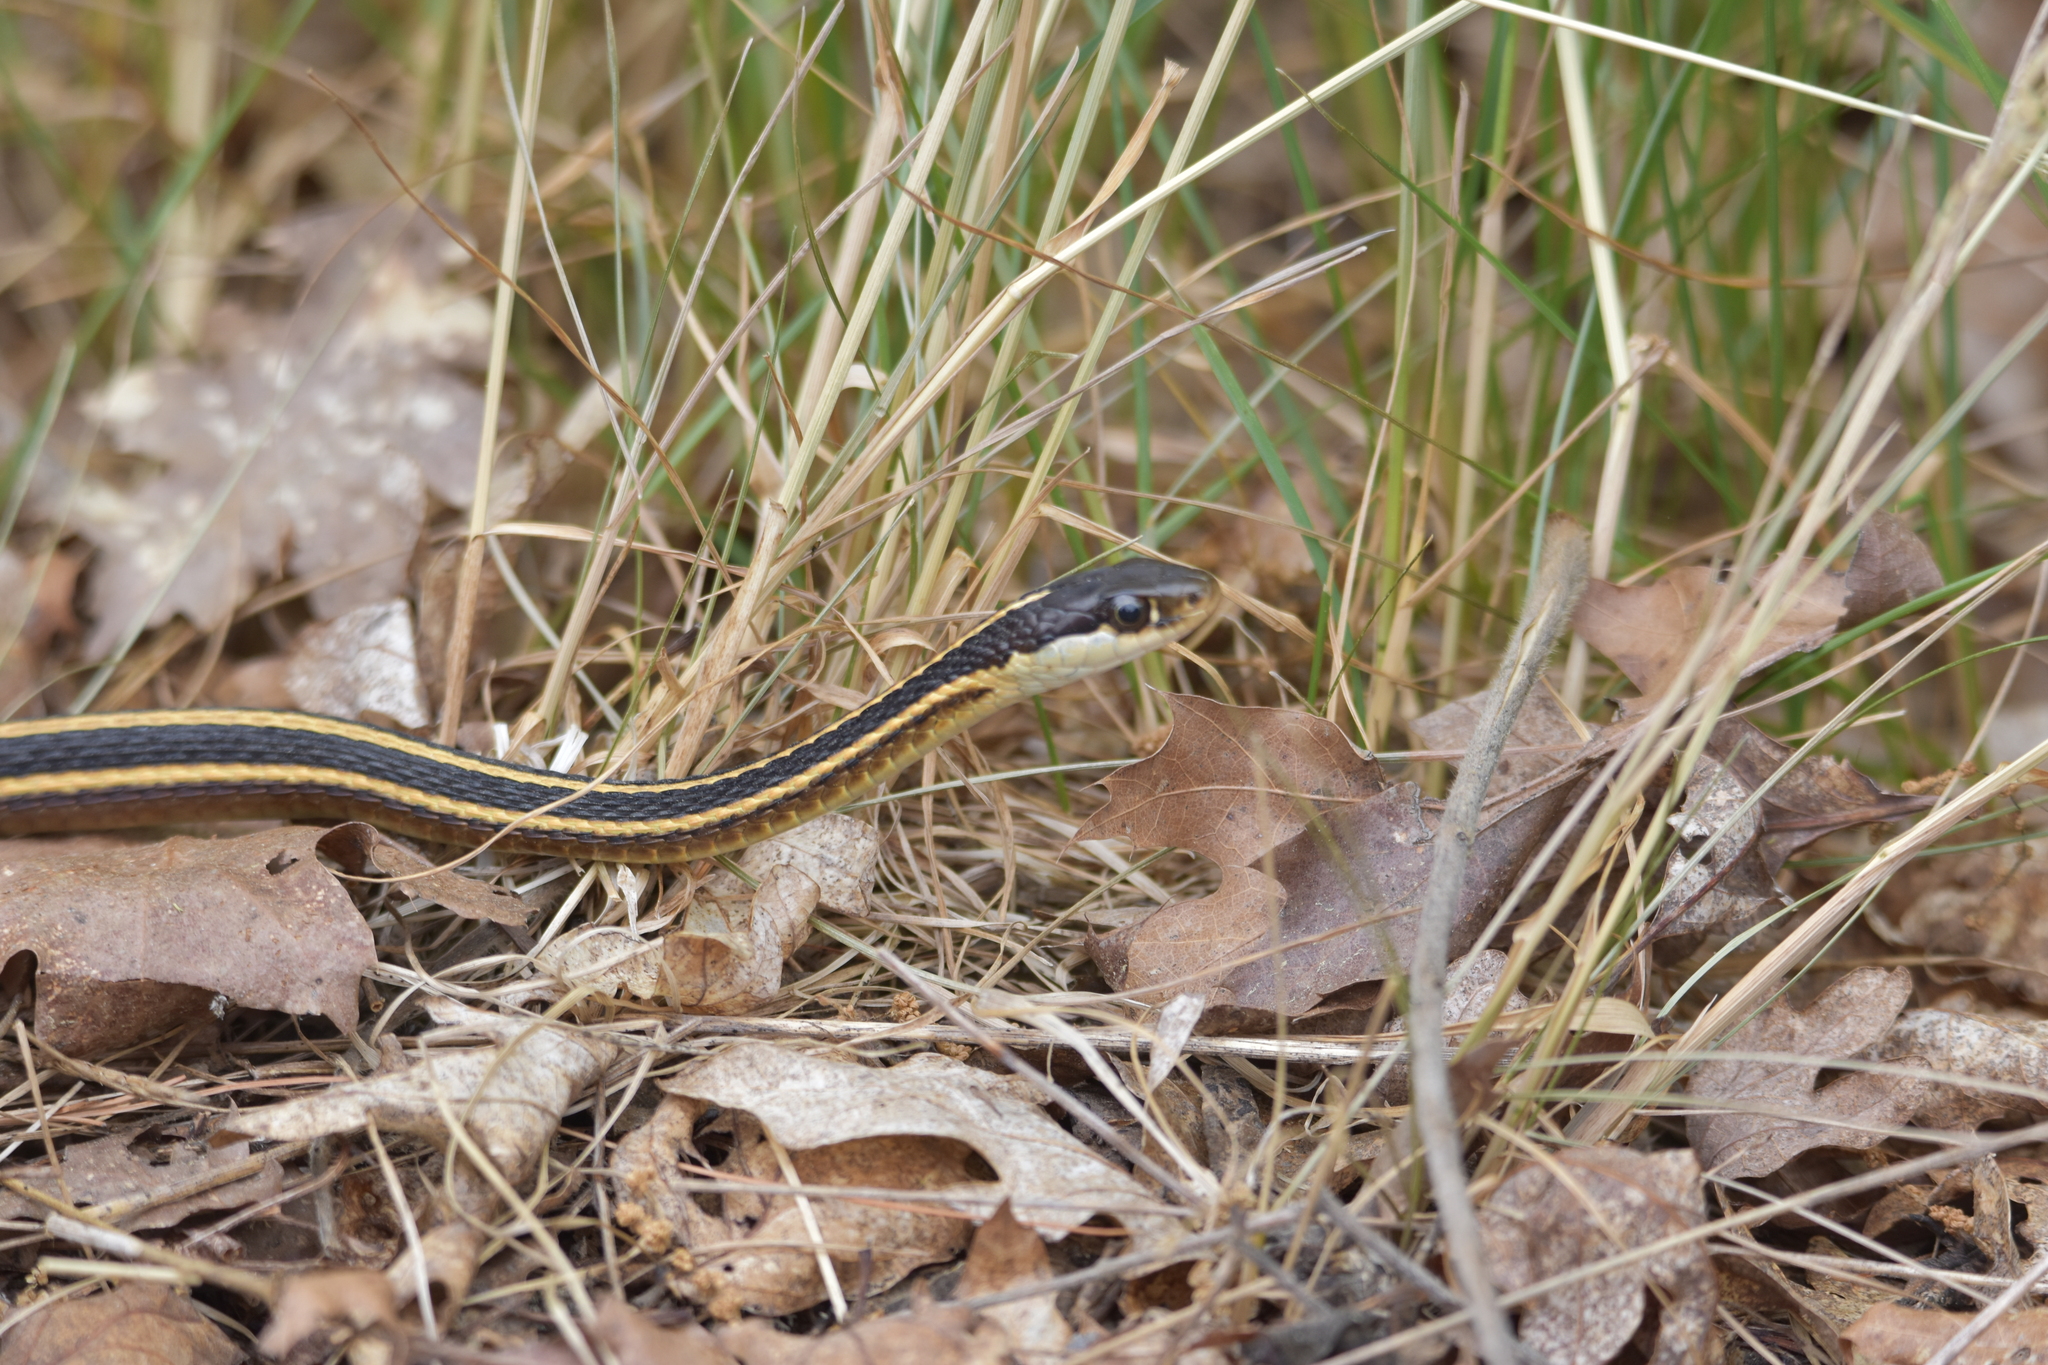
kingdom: Animalia
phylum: Chordata
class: Squamata
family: Colubridae
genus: Thamnophis
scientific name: Thamnophis saurita
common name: Eastern ribbonsnake
